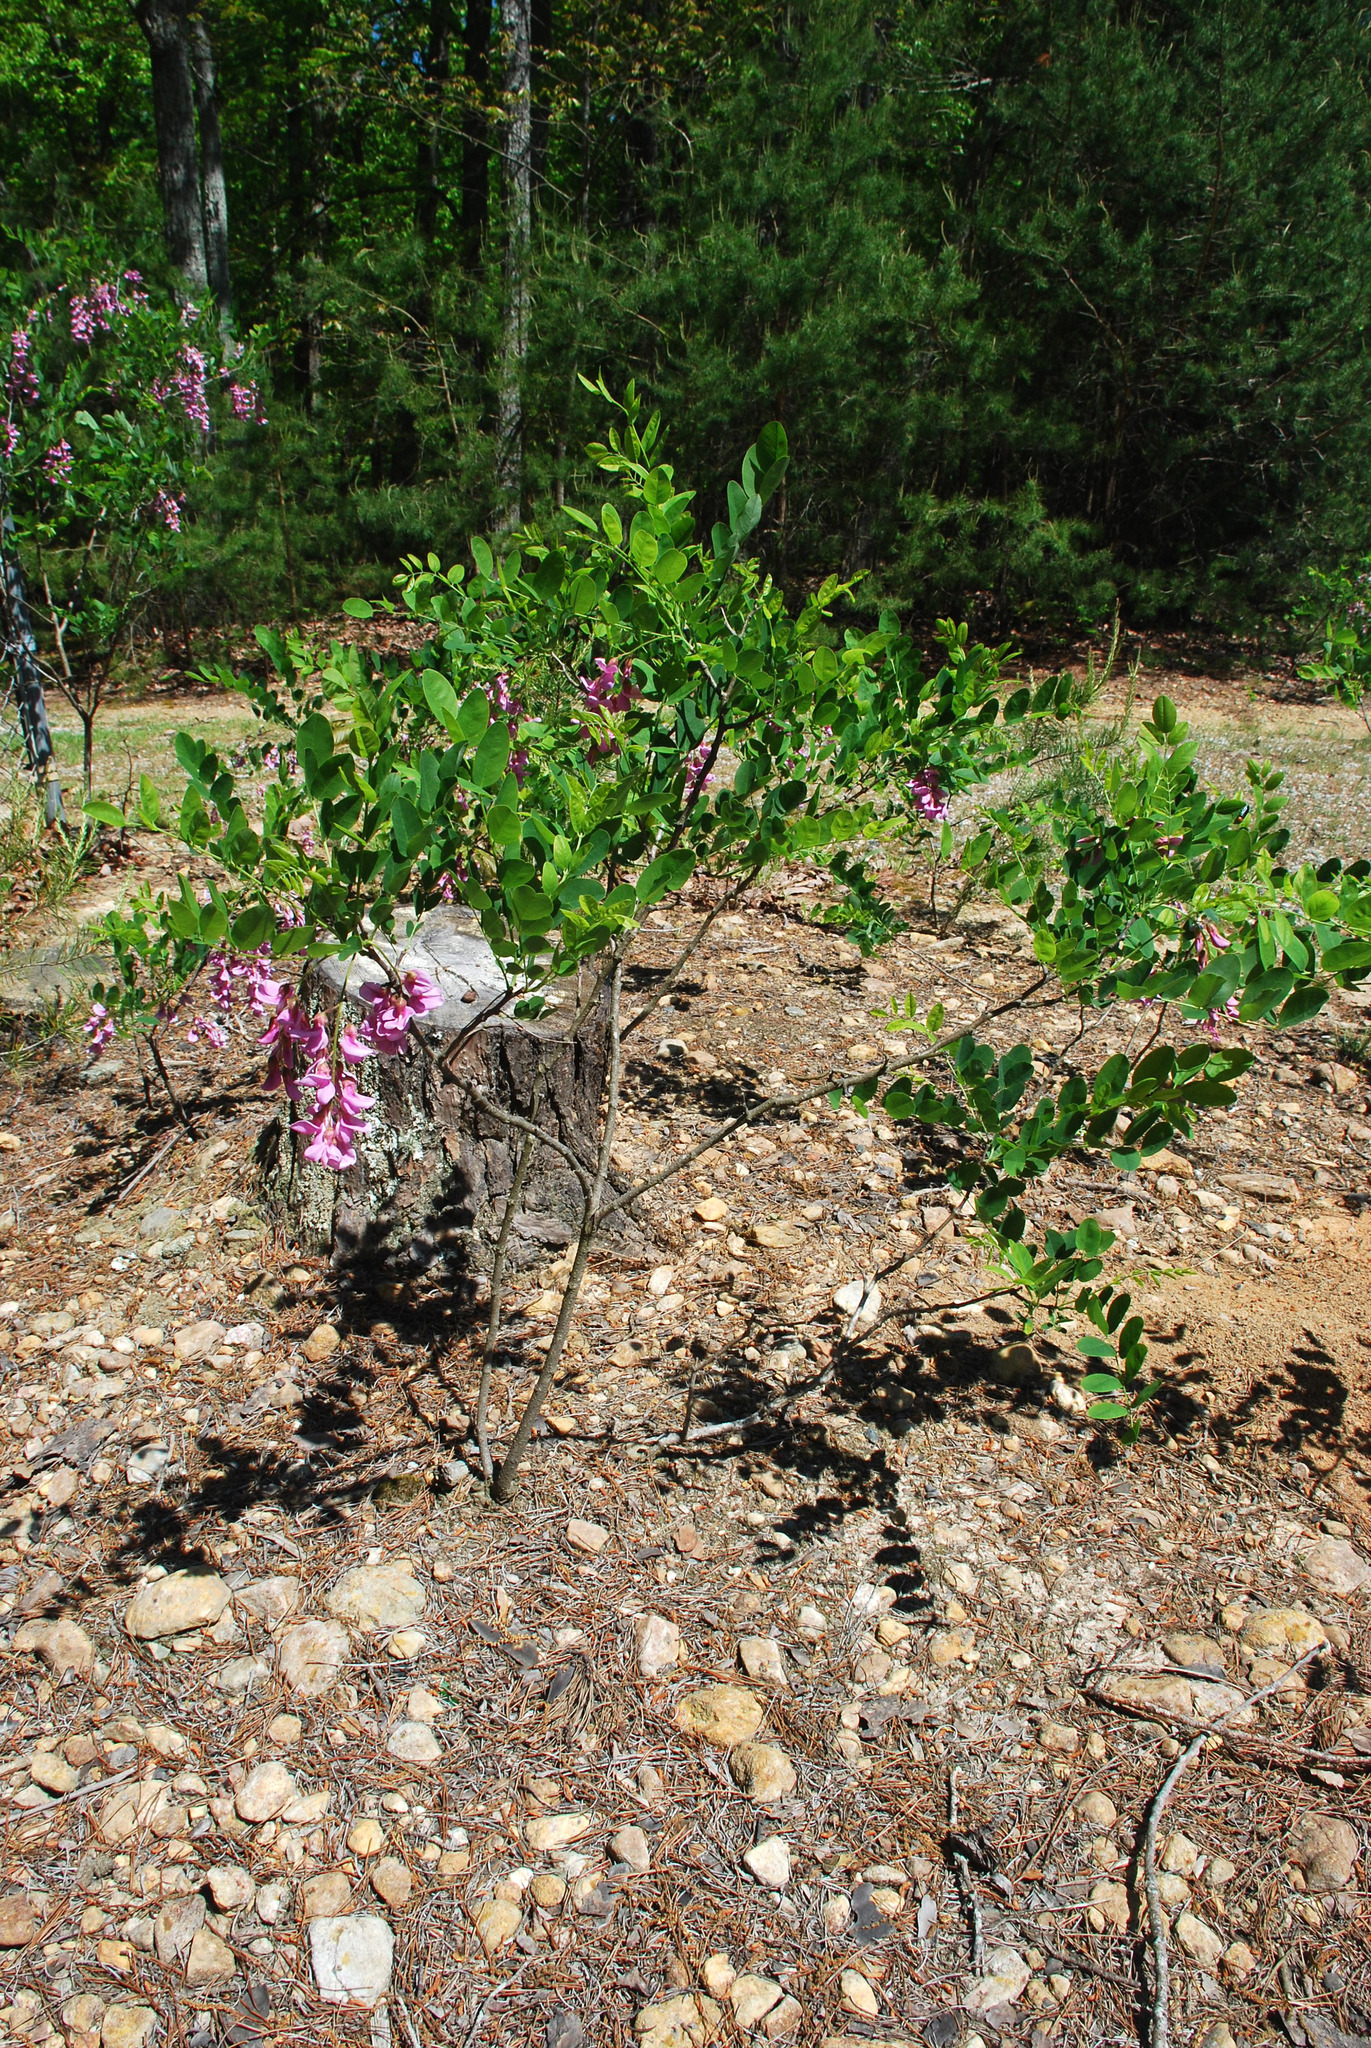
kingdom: Plantae
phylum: Tracheophyta
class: Magnoliopsida
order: Fabales
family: Fabaceae
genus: Robinia
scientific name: Robinia hispida
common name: Bristly locust
